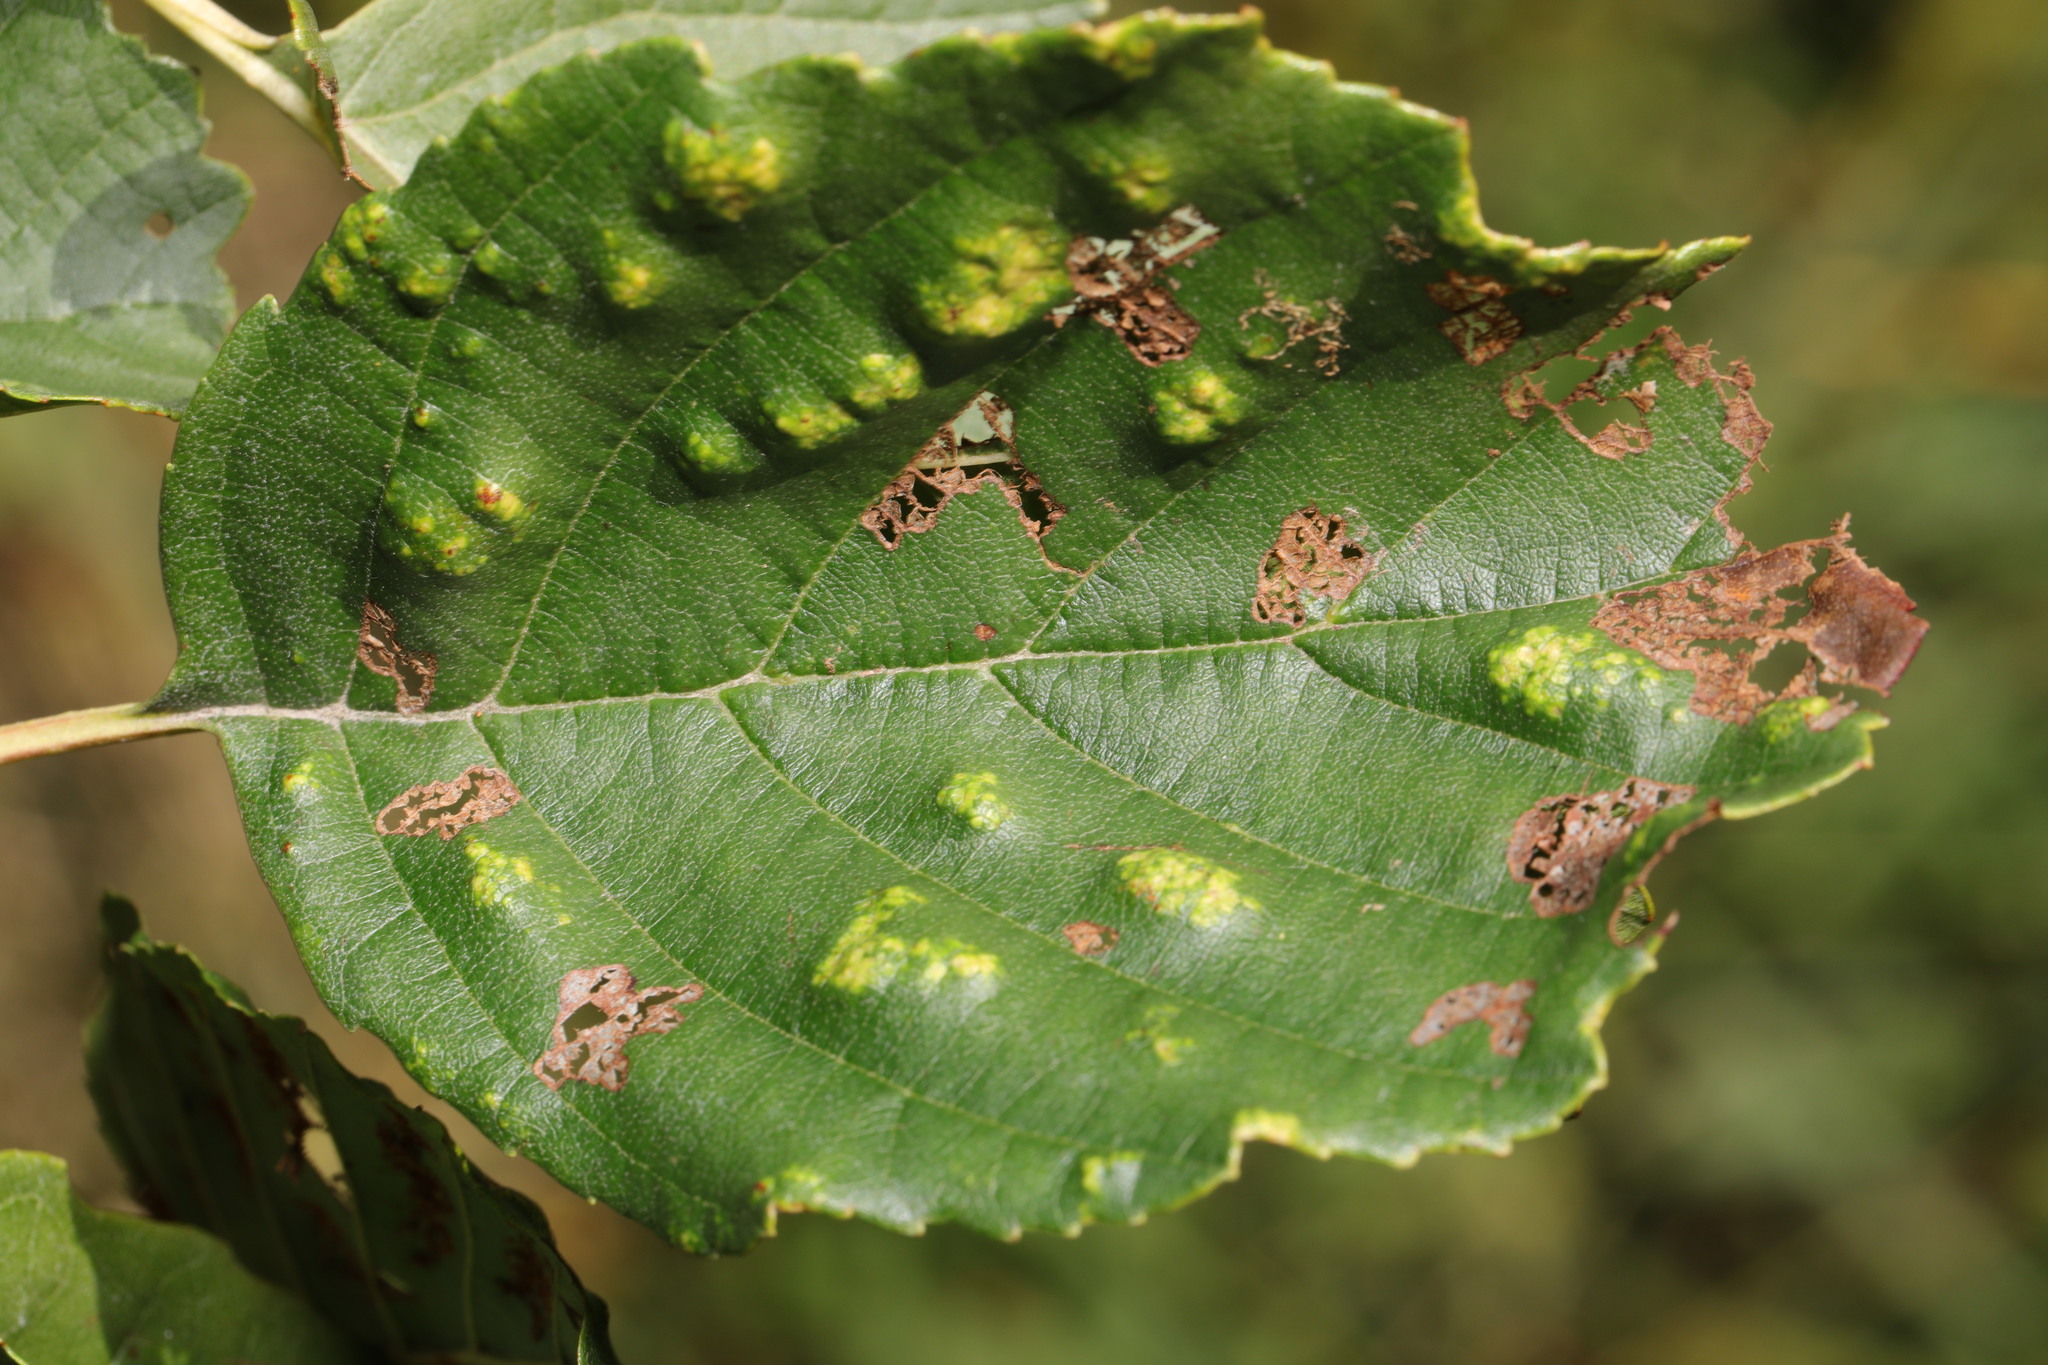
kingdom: Animalia
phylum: Arthropoda
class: Arachnida
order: Trombidiformes
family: Eriophyidae
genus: Acalitus
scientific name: Acalitus brevitarsus
